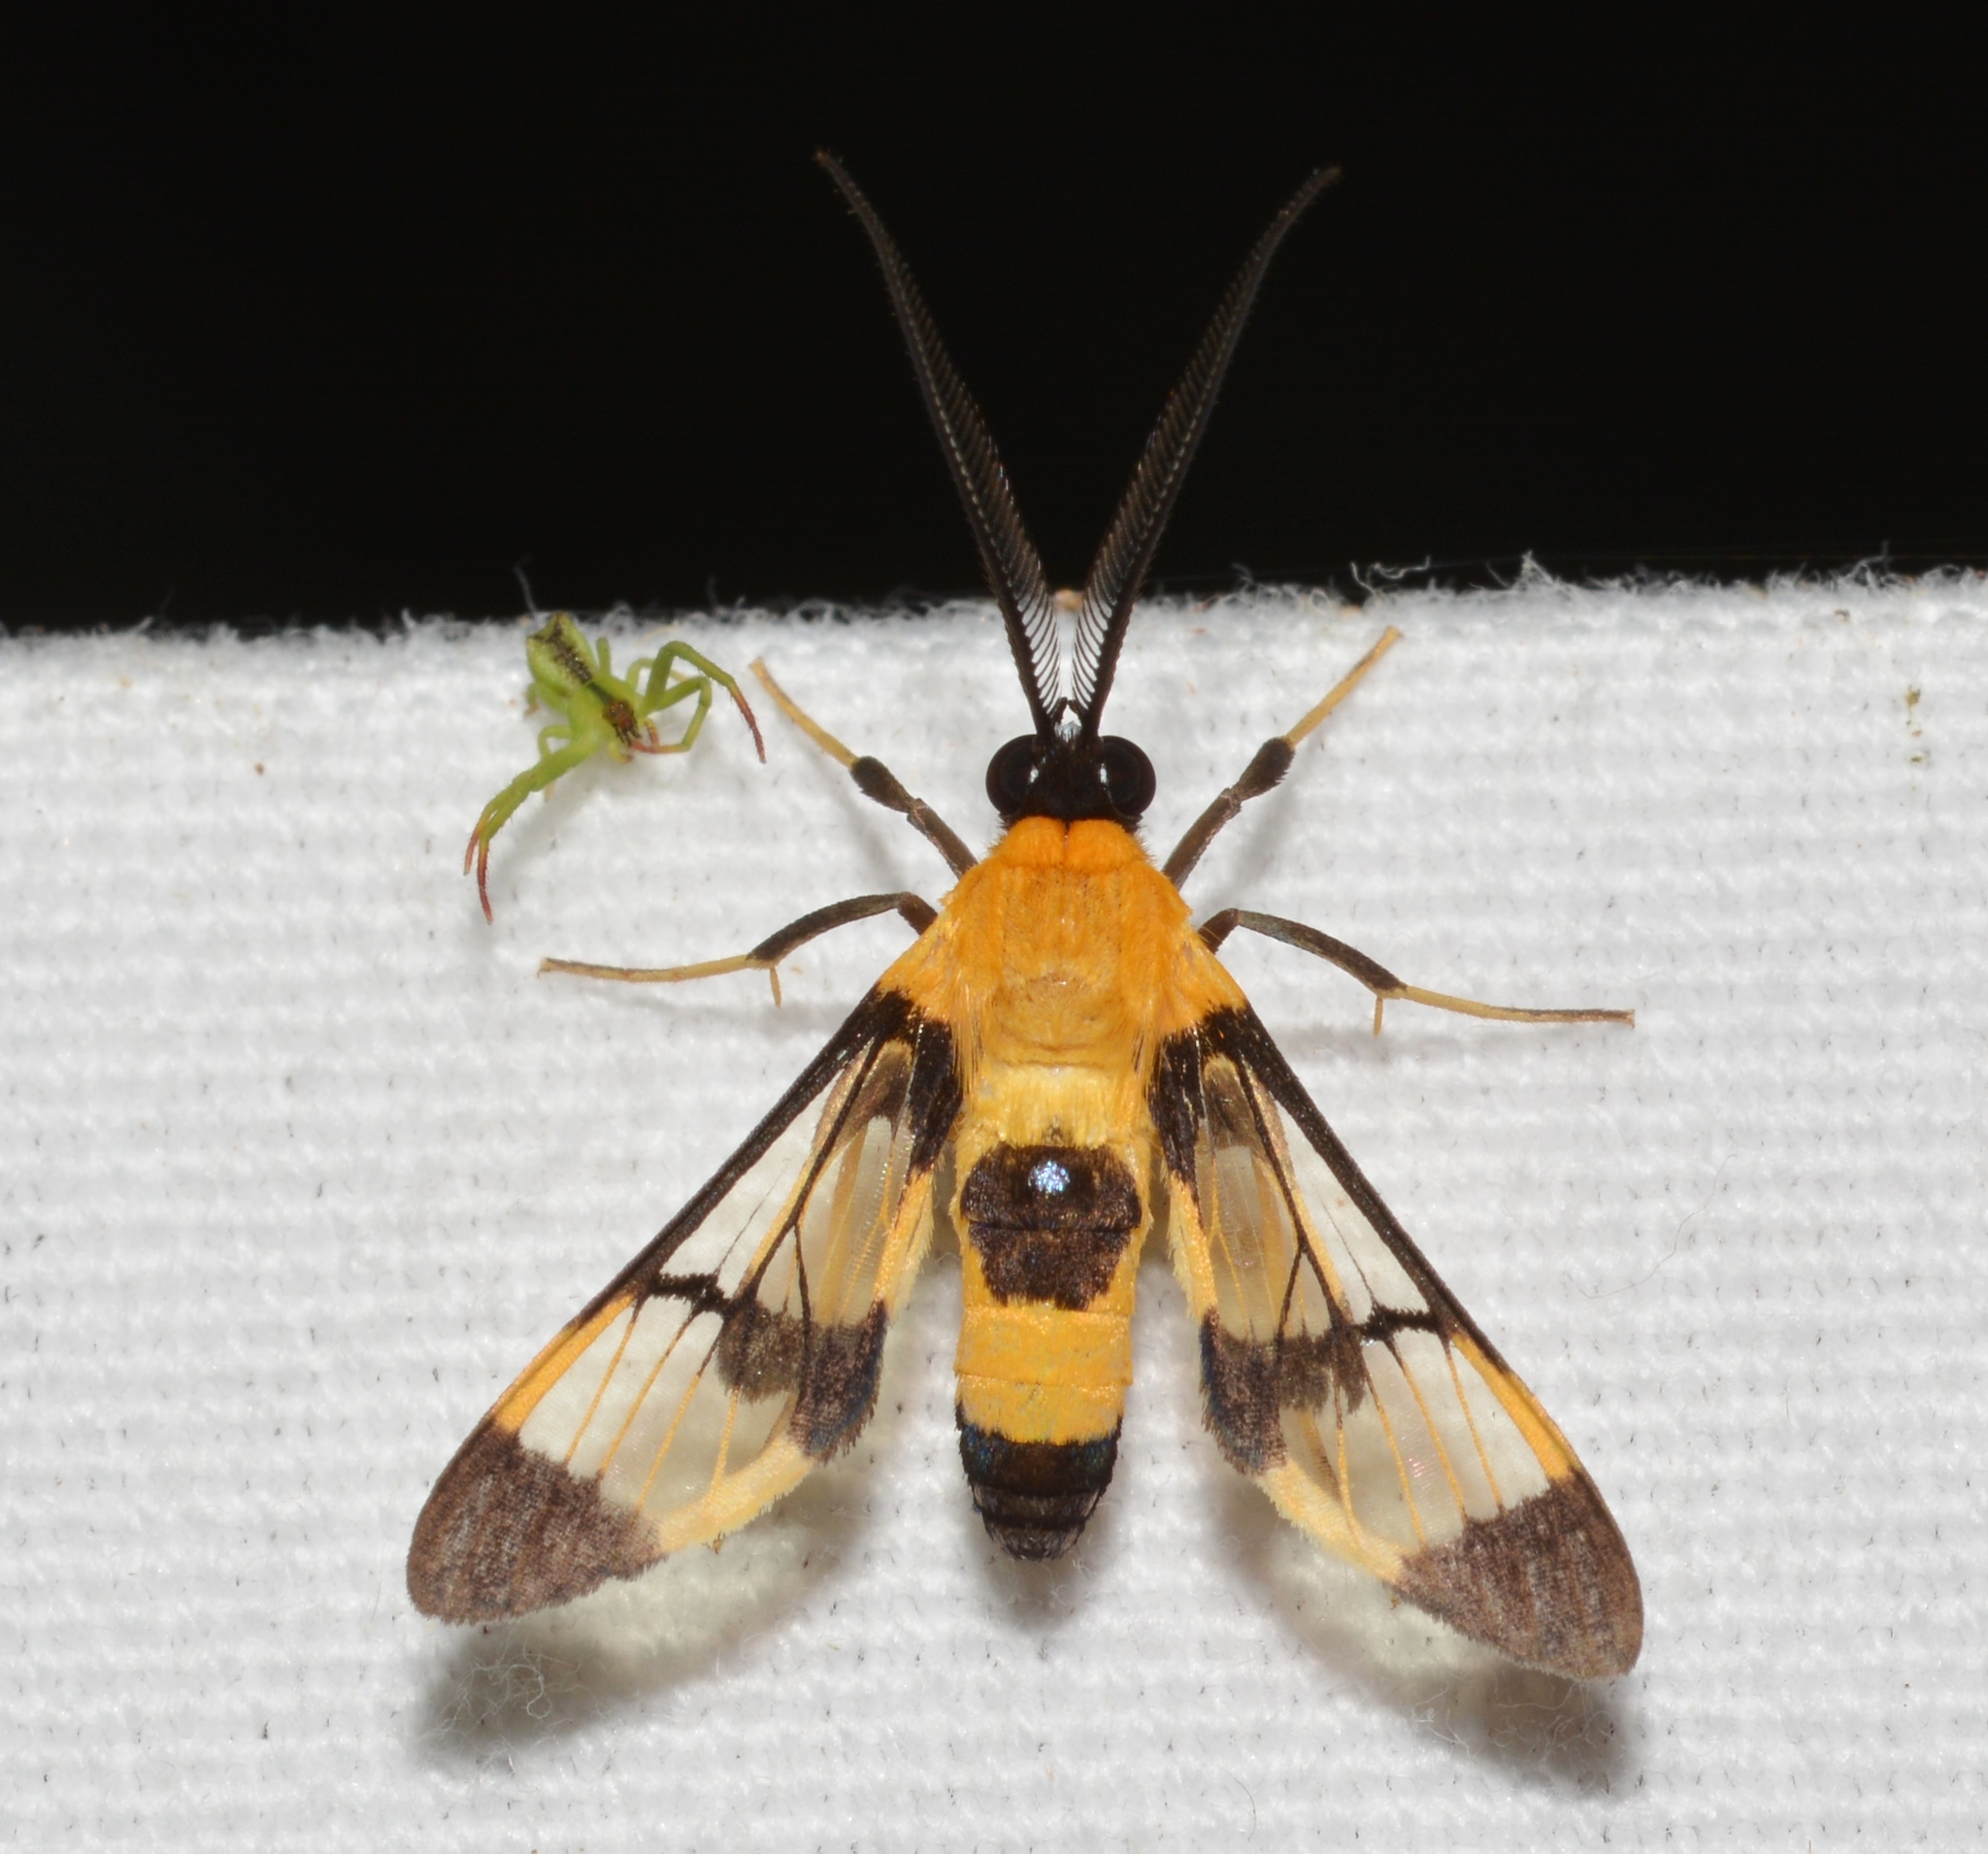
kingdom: Animalia
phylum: Arthropoda
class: Insecta
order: Lepidoptera
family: Erebidae
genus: Loxophlebia
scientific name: Loxophlebia flavipicta
